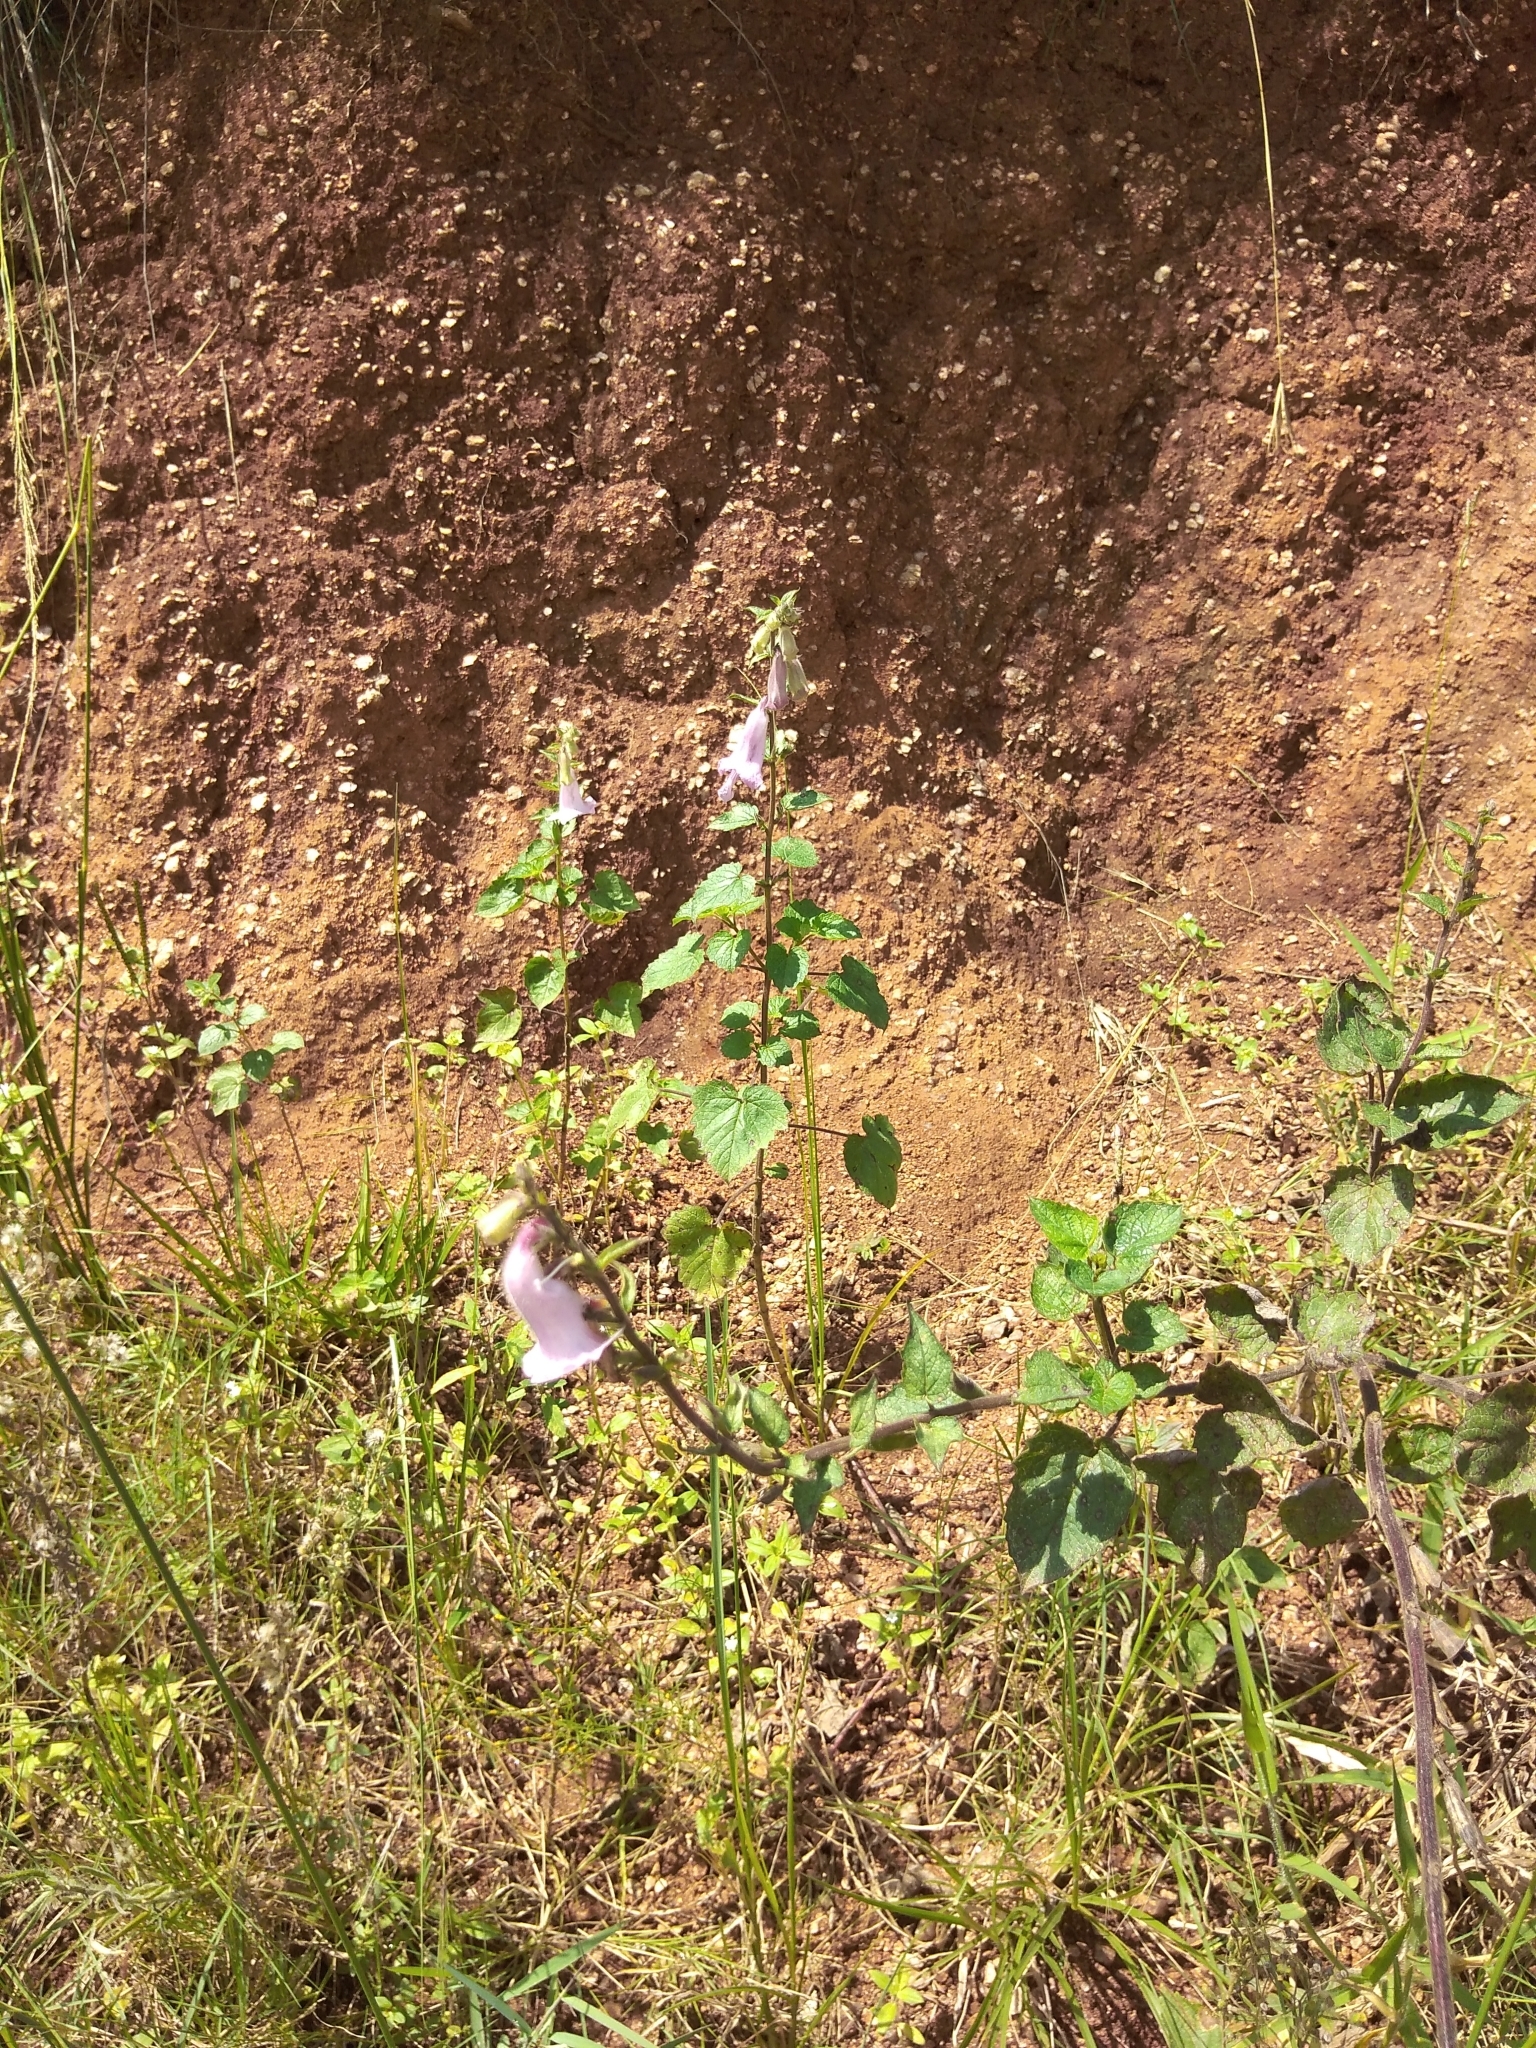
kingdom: Plantae
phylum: Tracheophyta
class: Magnoliopsida
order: Lamiales
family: Pedaliaceae
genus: Sesamum
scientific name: Sesamum trilobum
